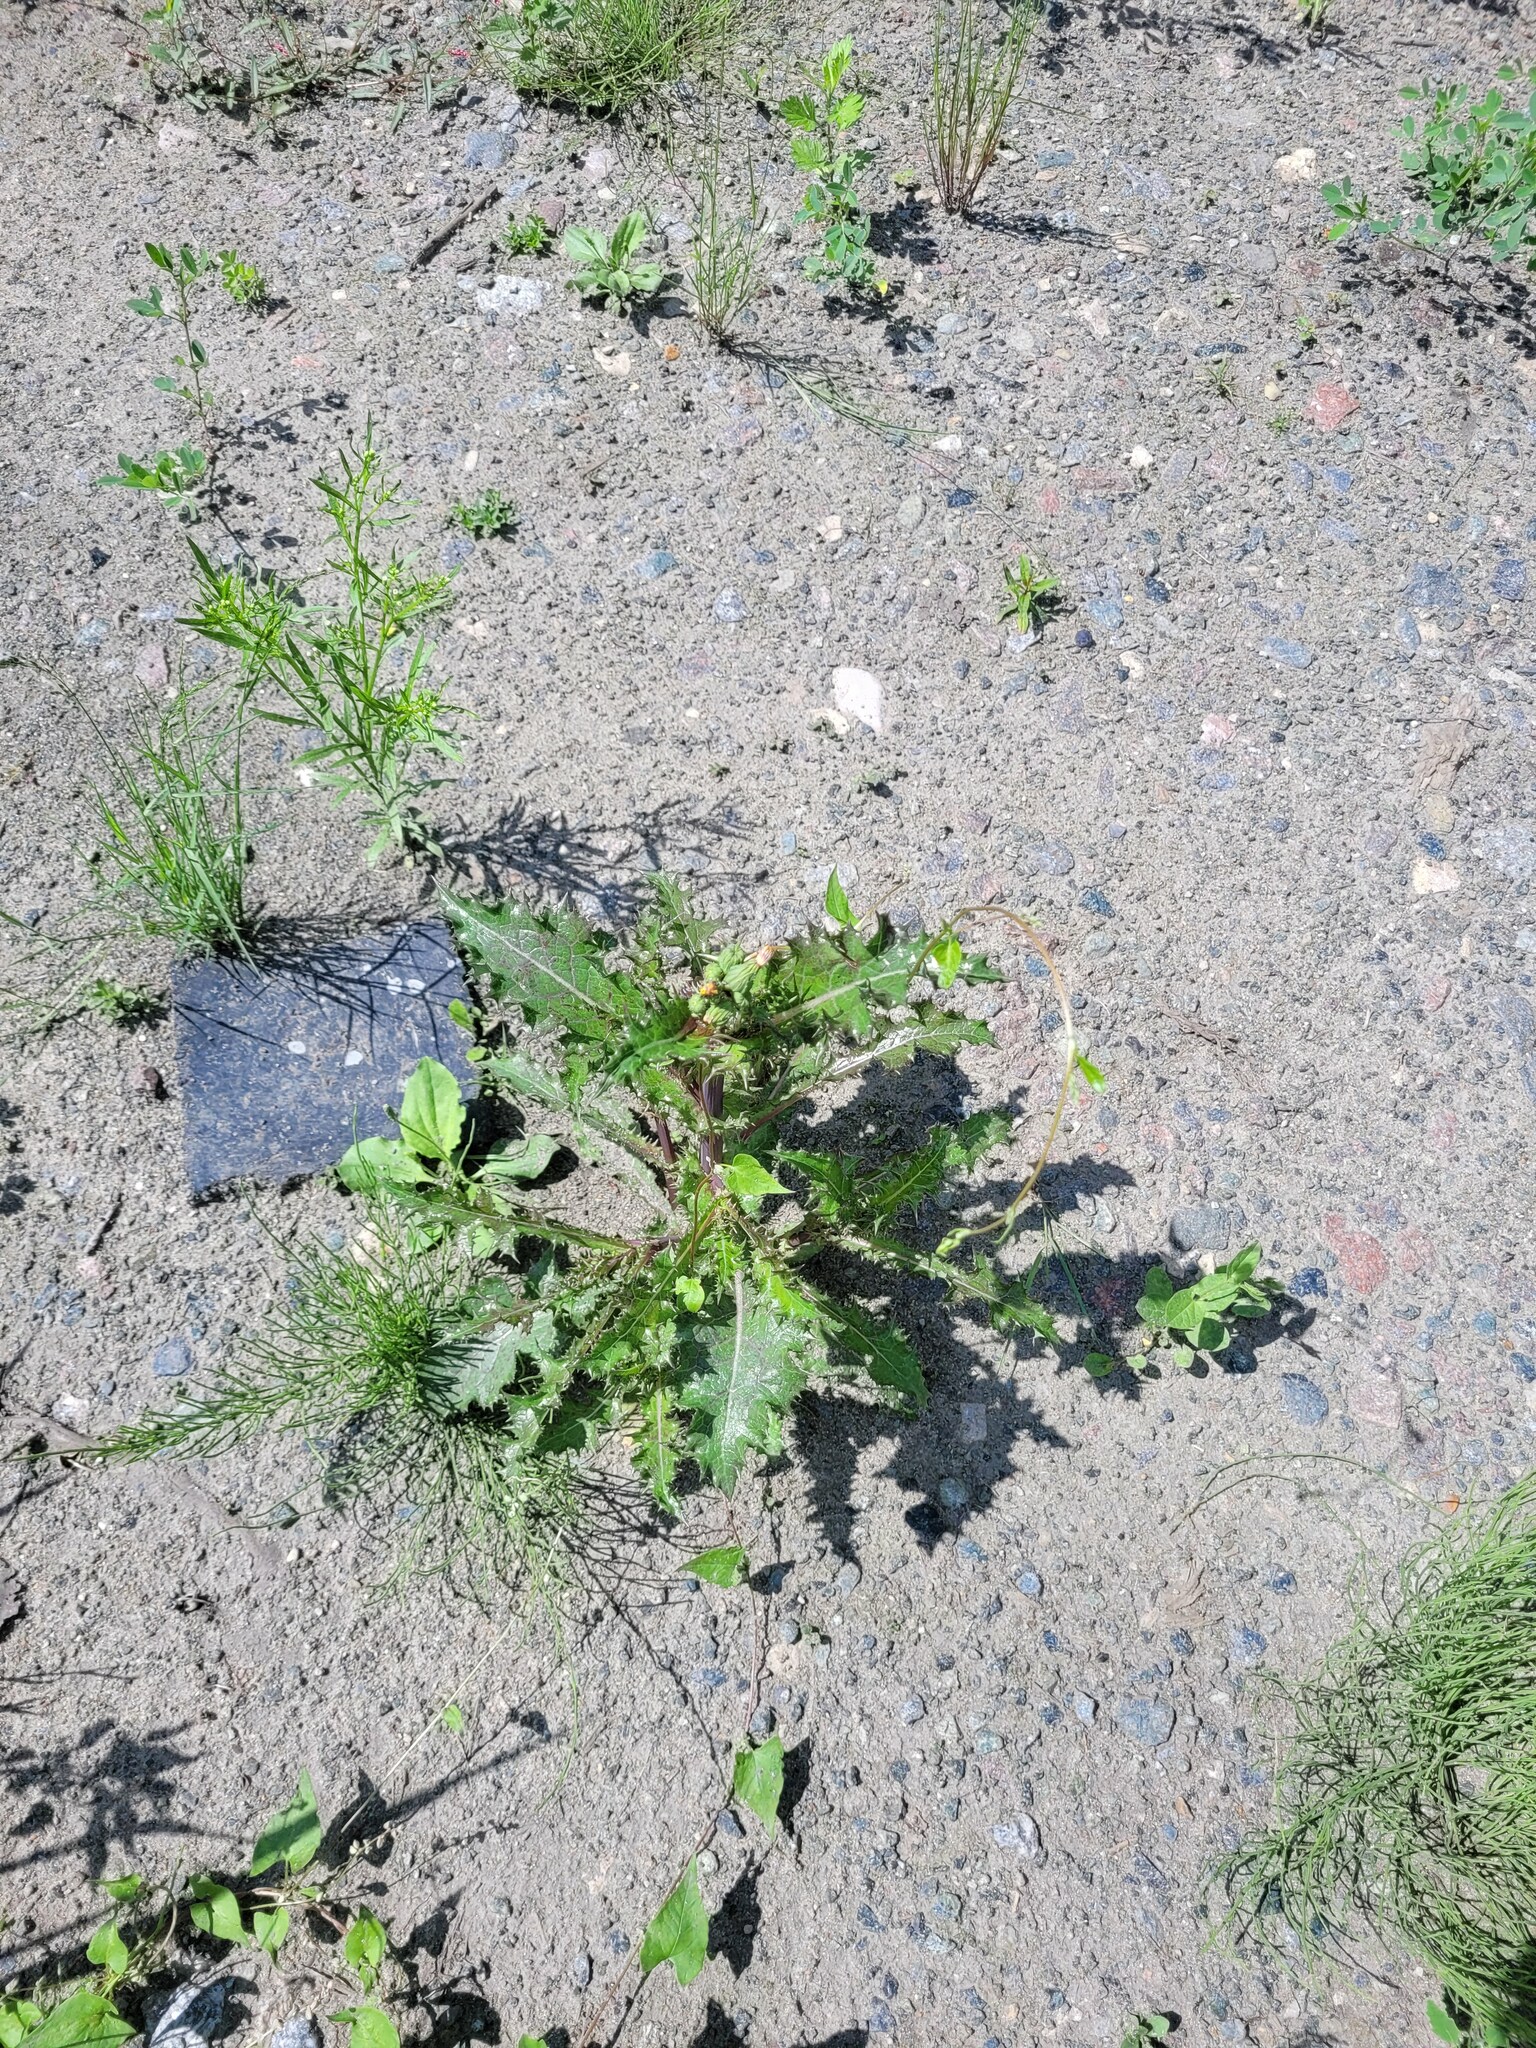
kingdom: Plantae
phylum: Tracheophyta
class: Magnoliopsida
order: Asterales
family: Asteraceae
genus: Sonchus
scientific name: Sonchus asper
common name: Prickly sow-thistle
